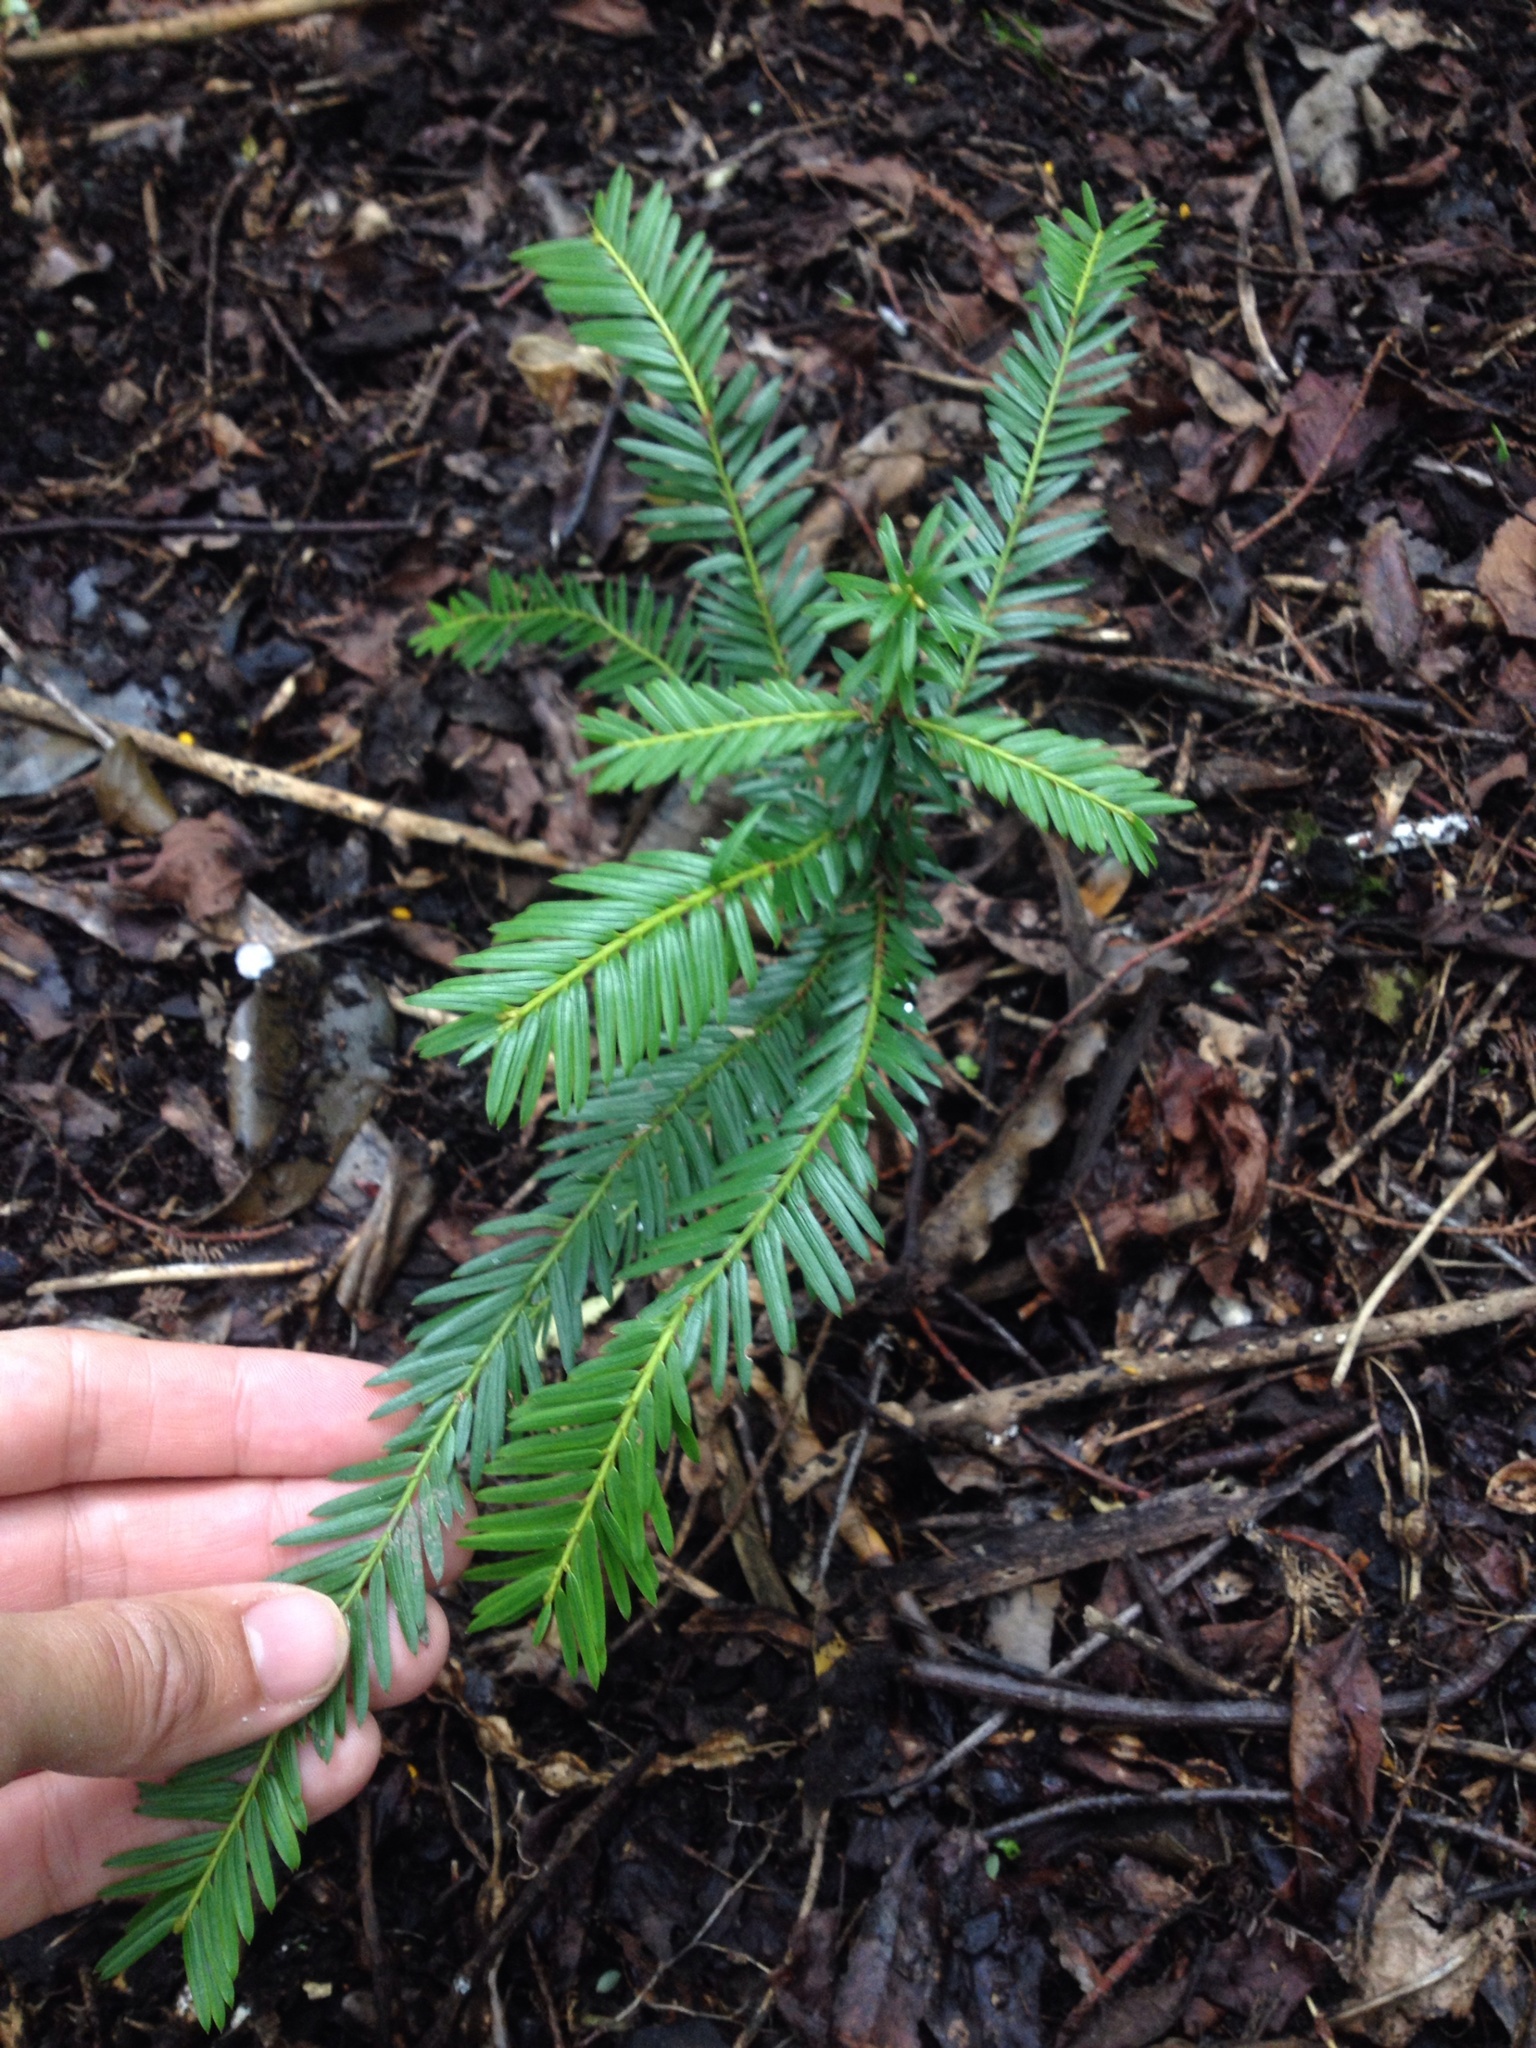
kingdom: Plantae
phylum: Tracheophyta
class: Pinopsida
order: Pinales
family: Taxaceae
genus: Taxus
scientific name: Taxus baccata
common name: Yew
